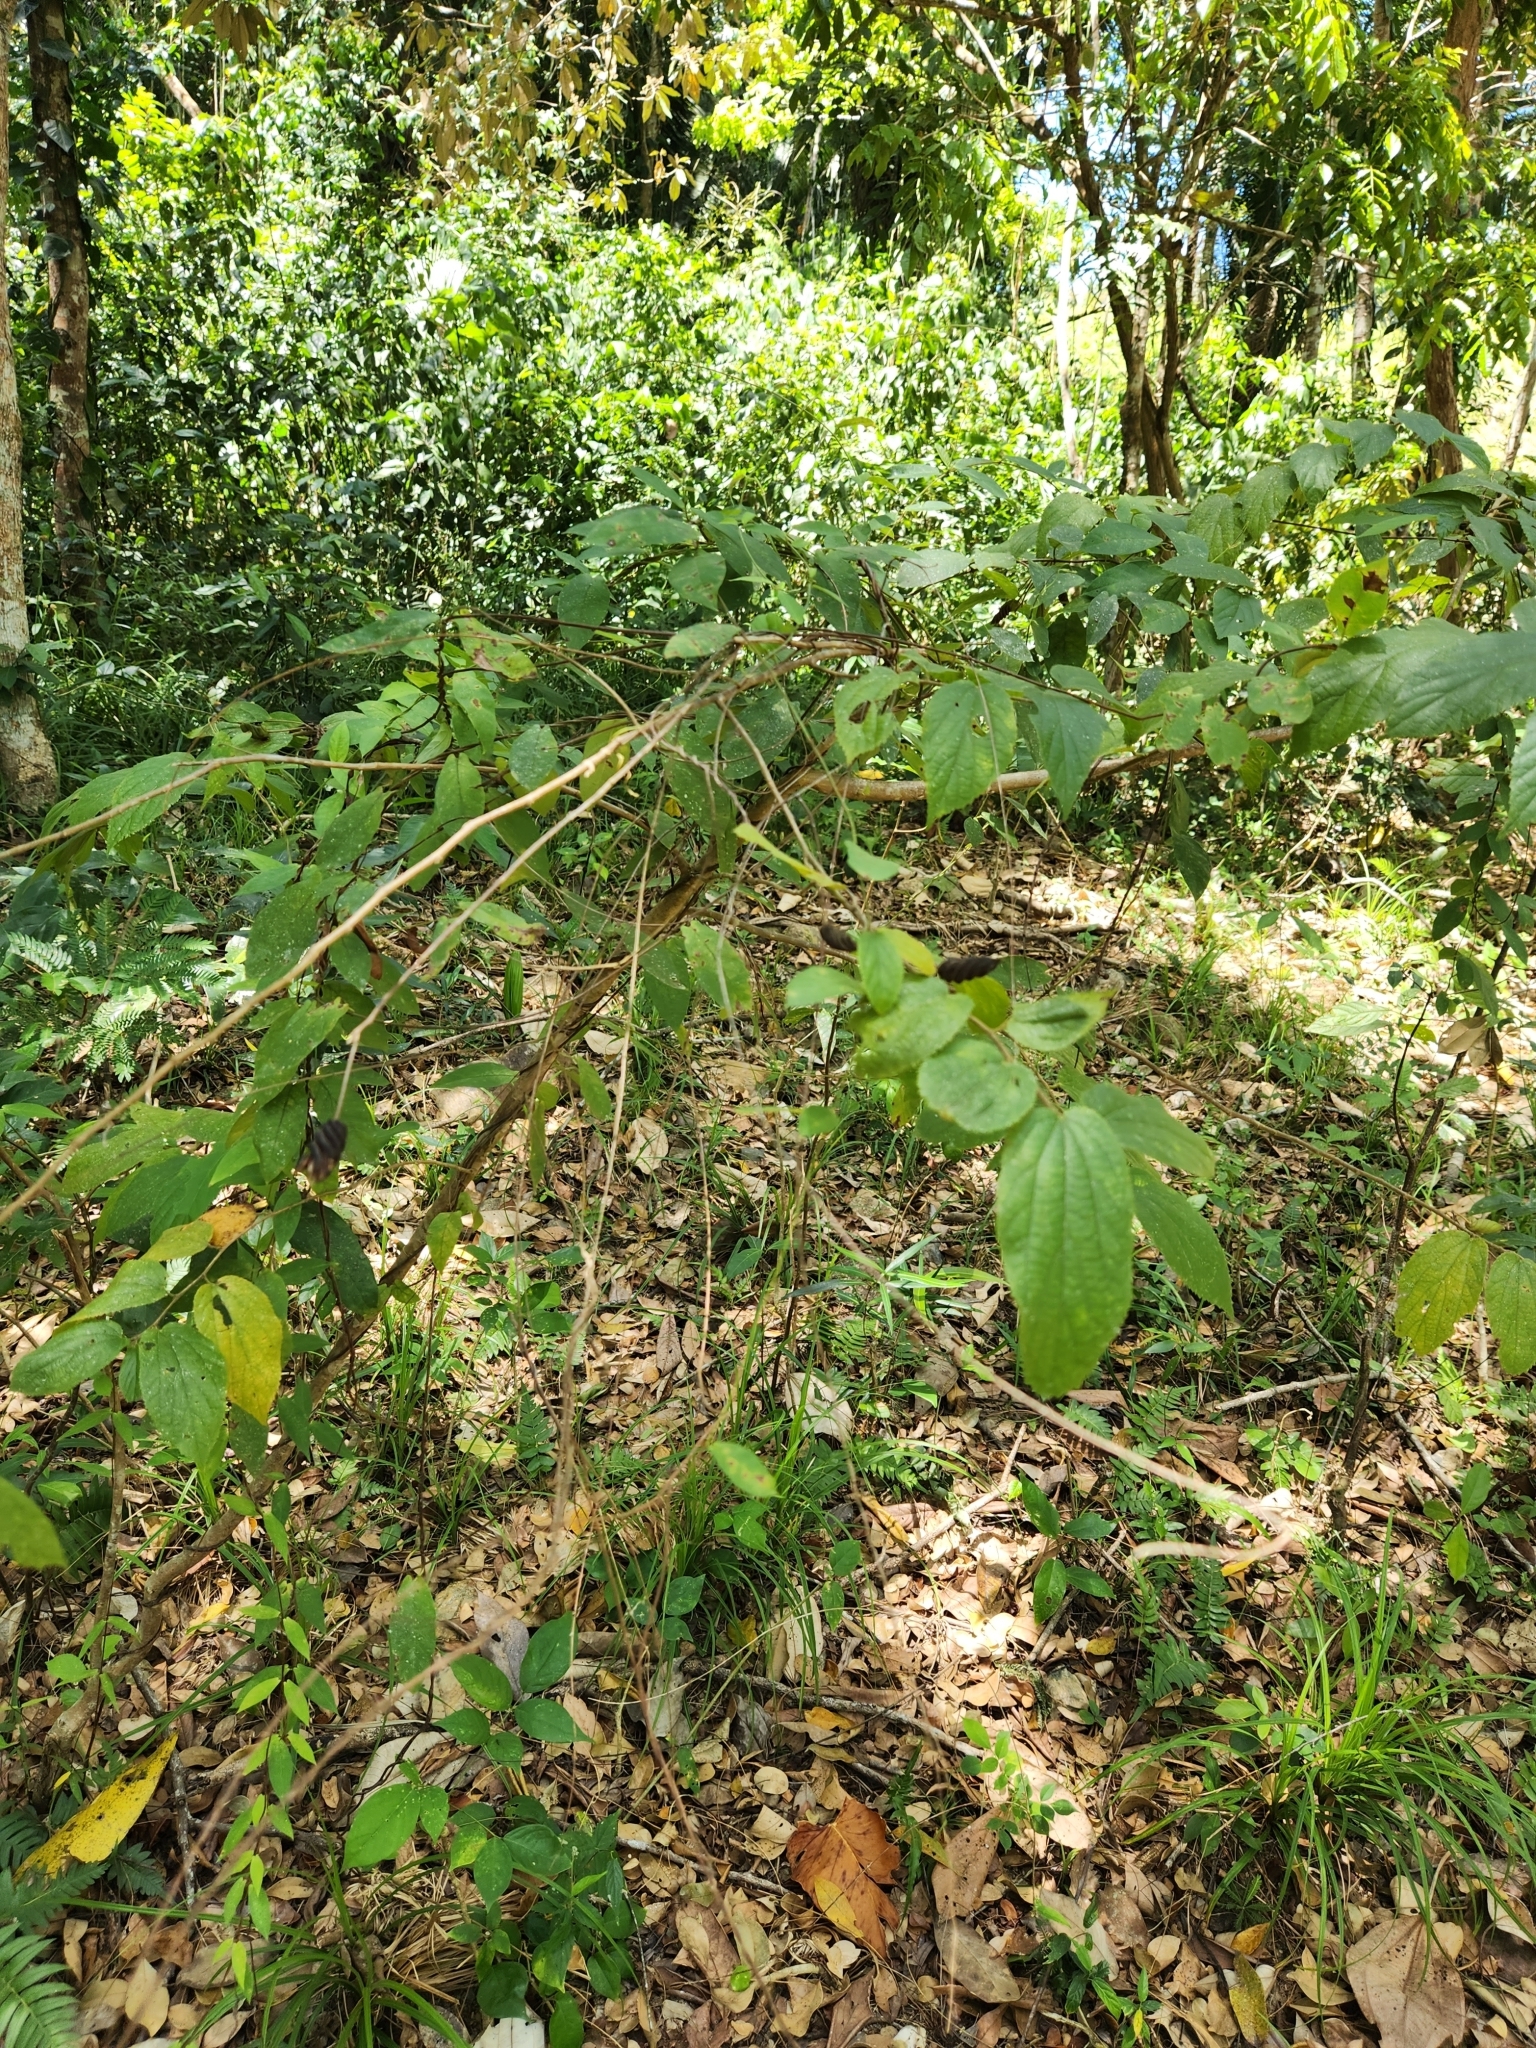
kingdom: Plantae
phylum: Tracheophyta
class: Magnoliopsida
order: Malvales
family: Malvaceae
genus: Helicteres
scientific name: Helicteres guazumifolia
